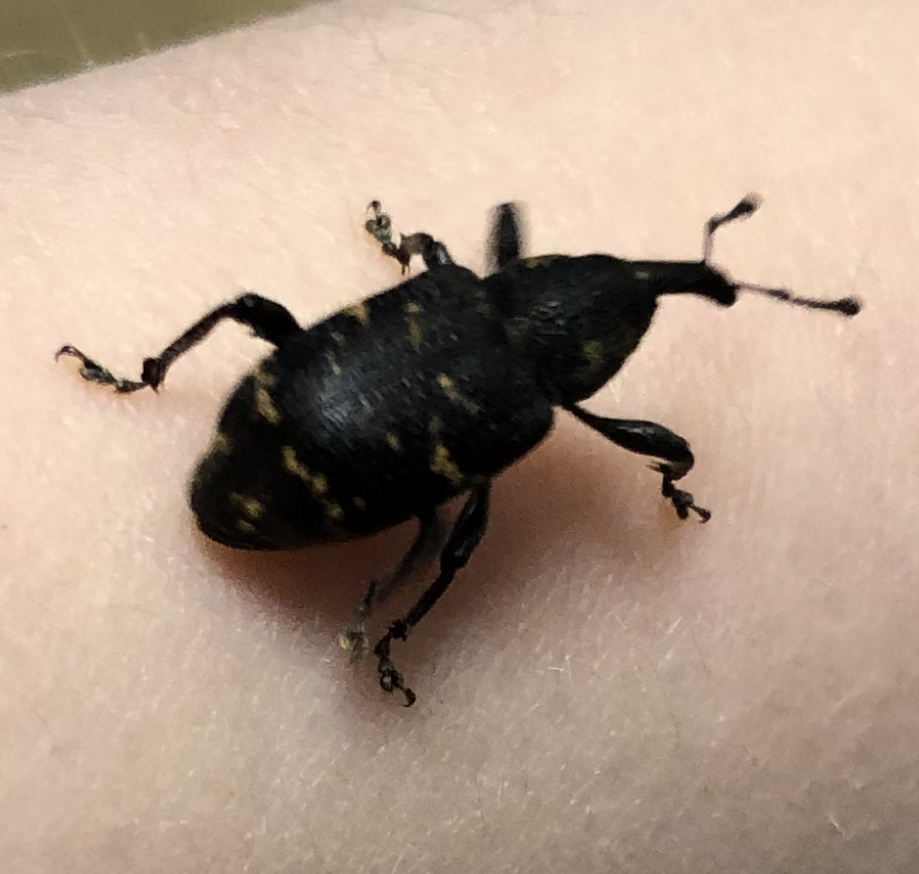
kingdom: Animalia
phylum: Arthropoda
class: Insecta
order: Coleoptera
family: Curculionidae
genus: Hylobius
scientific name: Hylobius abietis
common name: Large pine weevil
